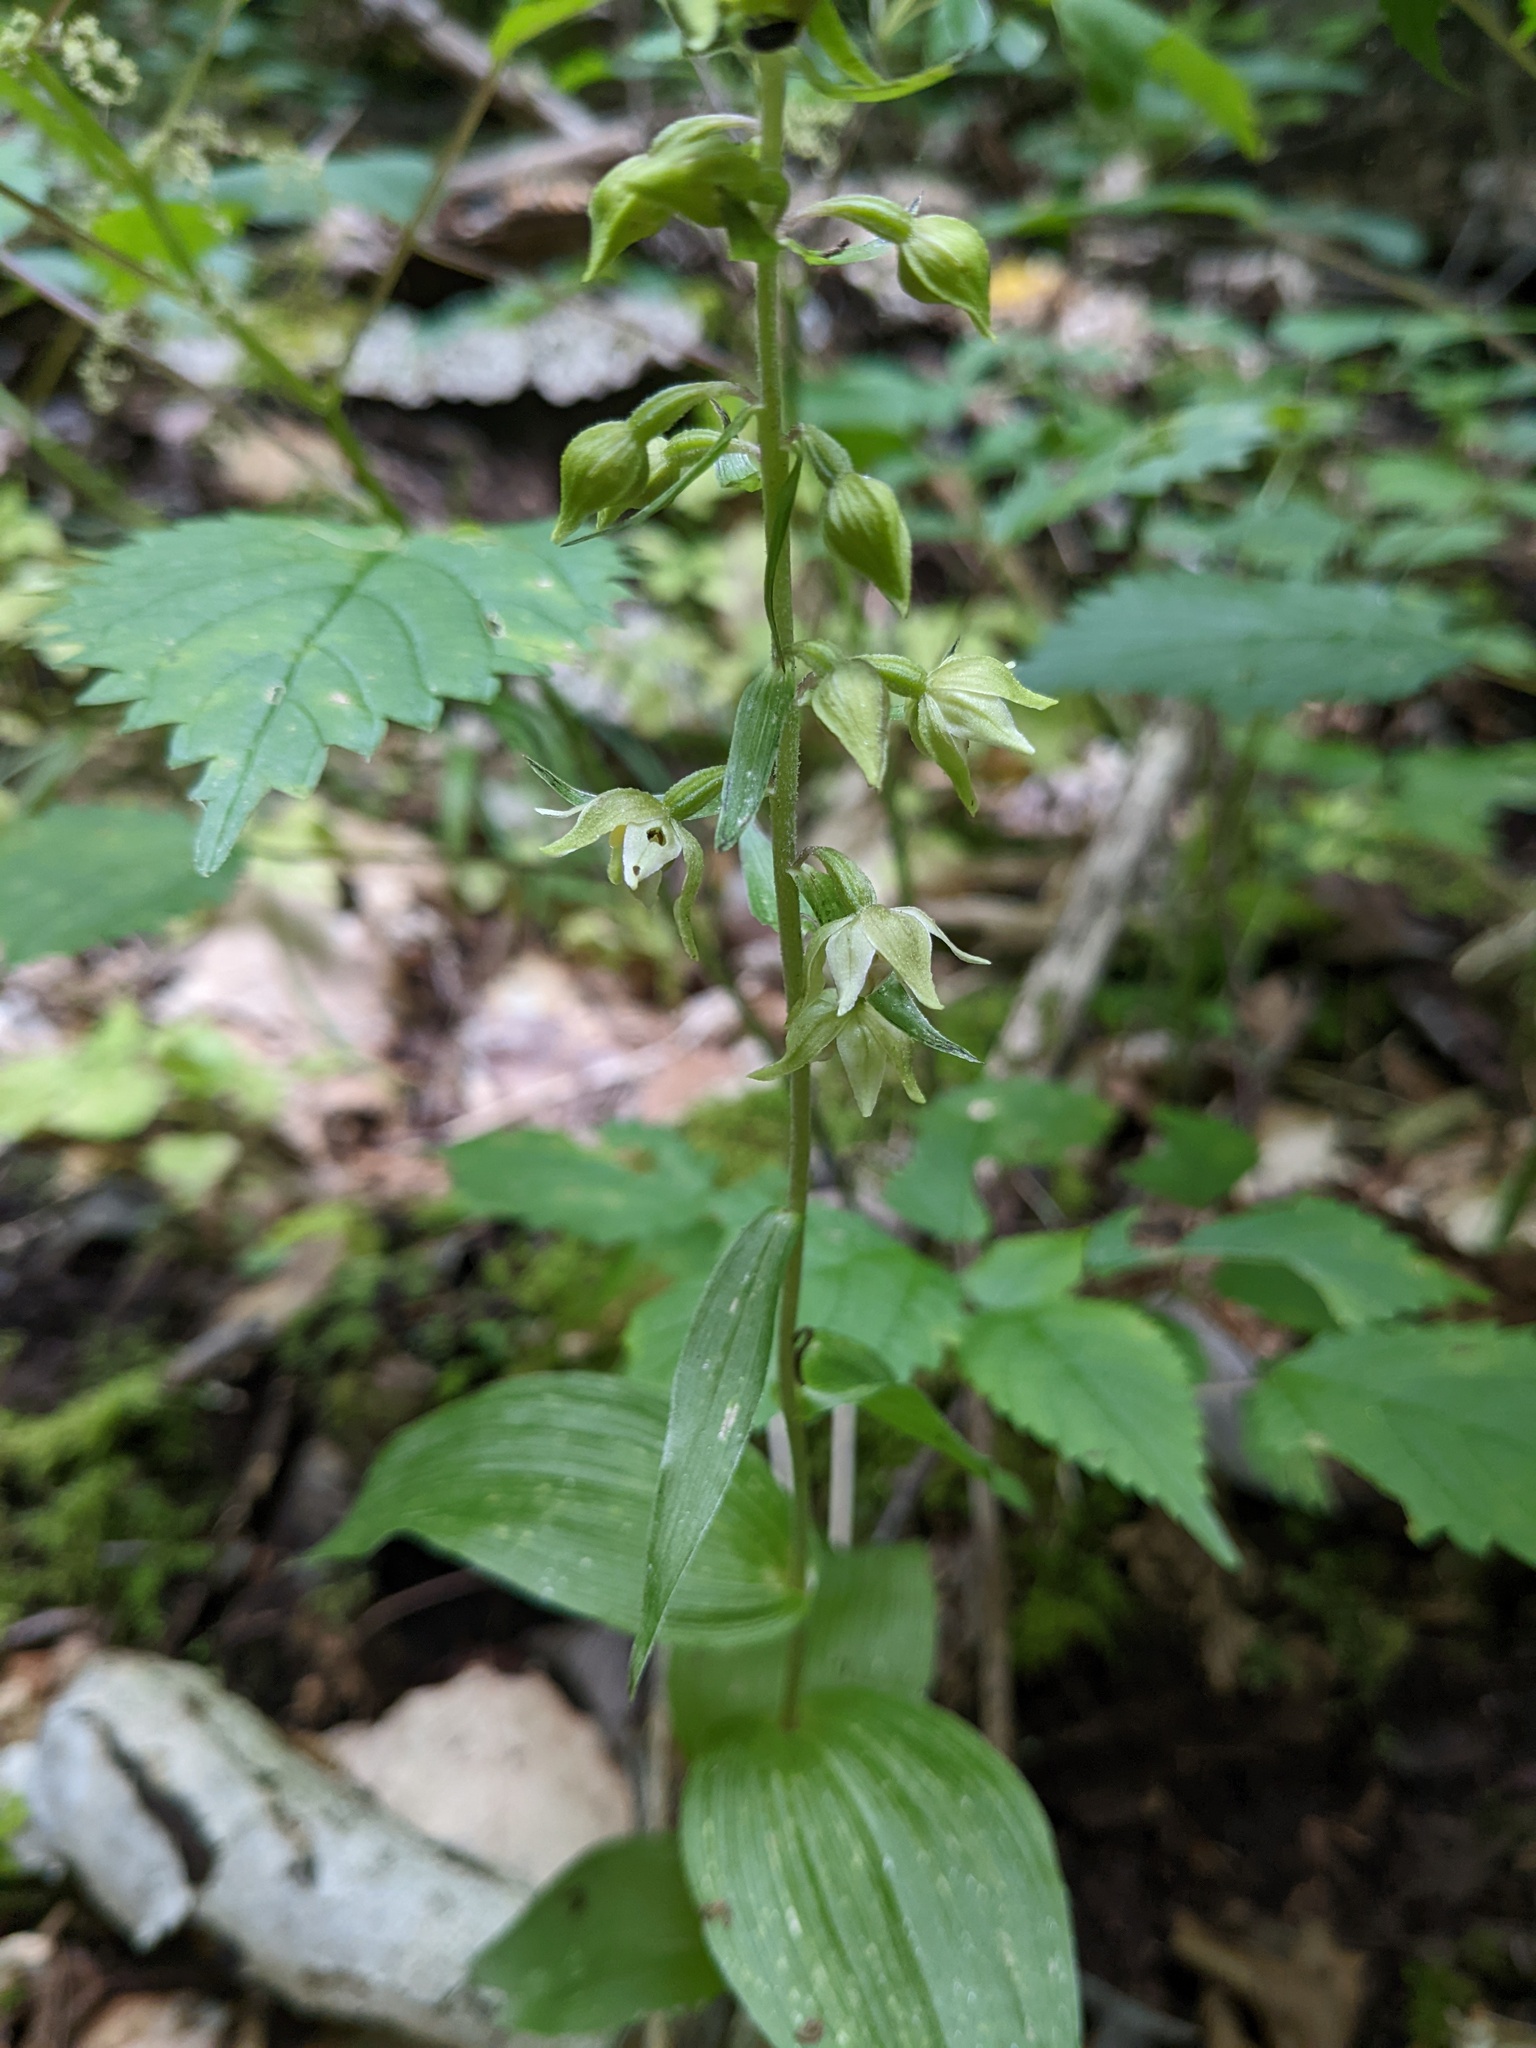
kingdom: Plantae
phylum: Tracheophyta
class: Liliopsida
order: Asparagales
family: Orchidaceae
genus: Epipactis
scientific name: Epipactis helleborine
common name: Broad-leaved helleborine
